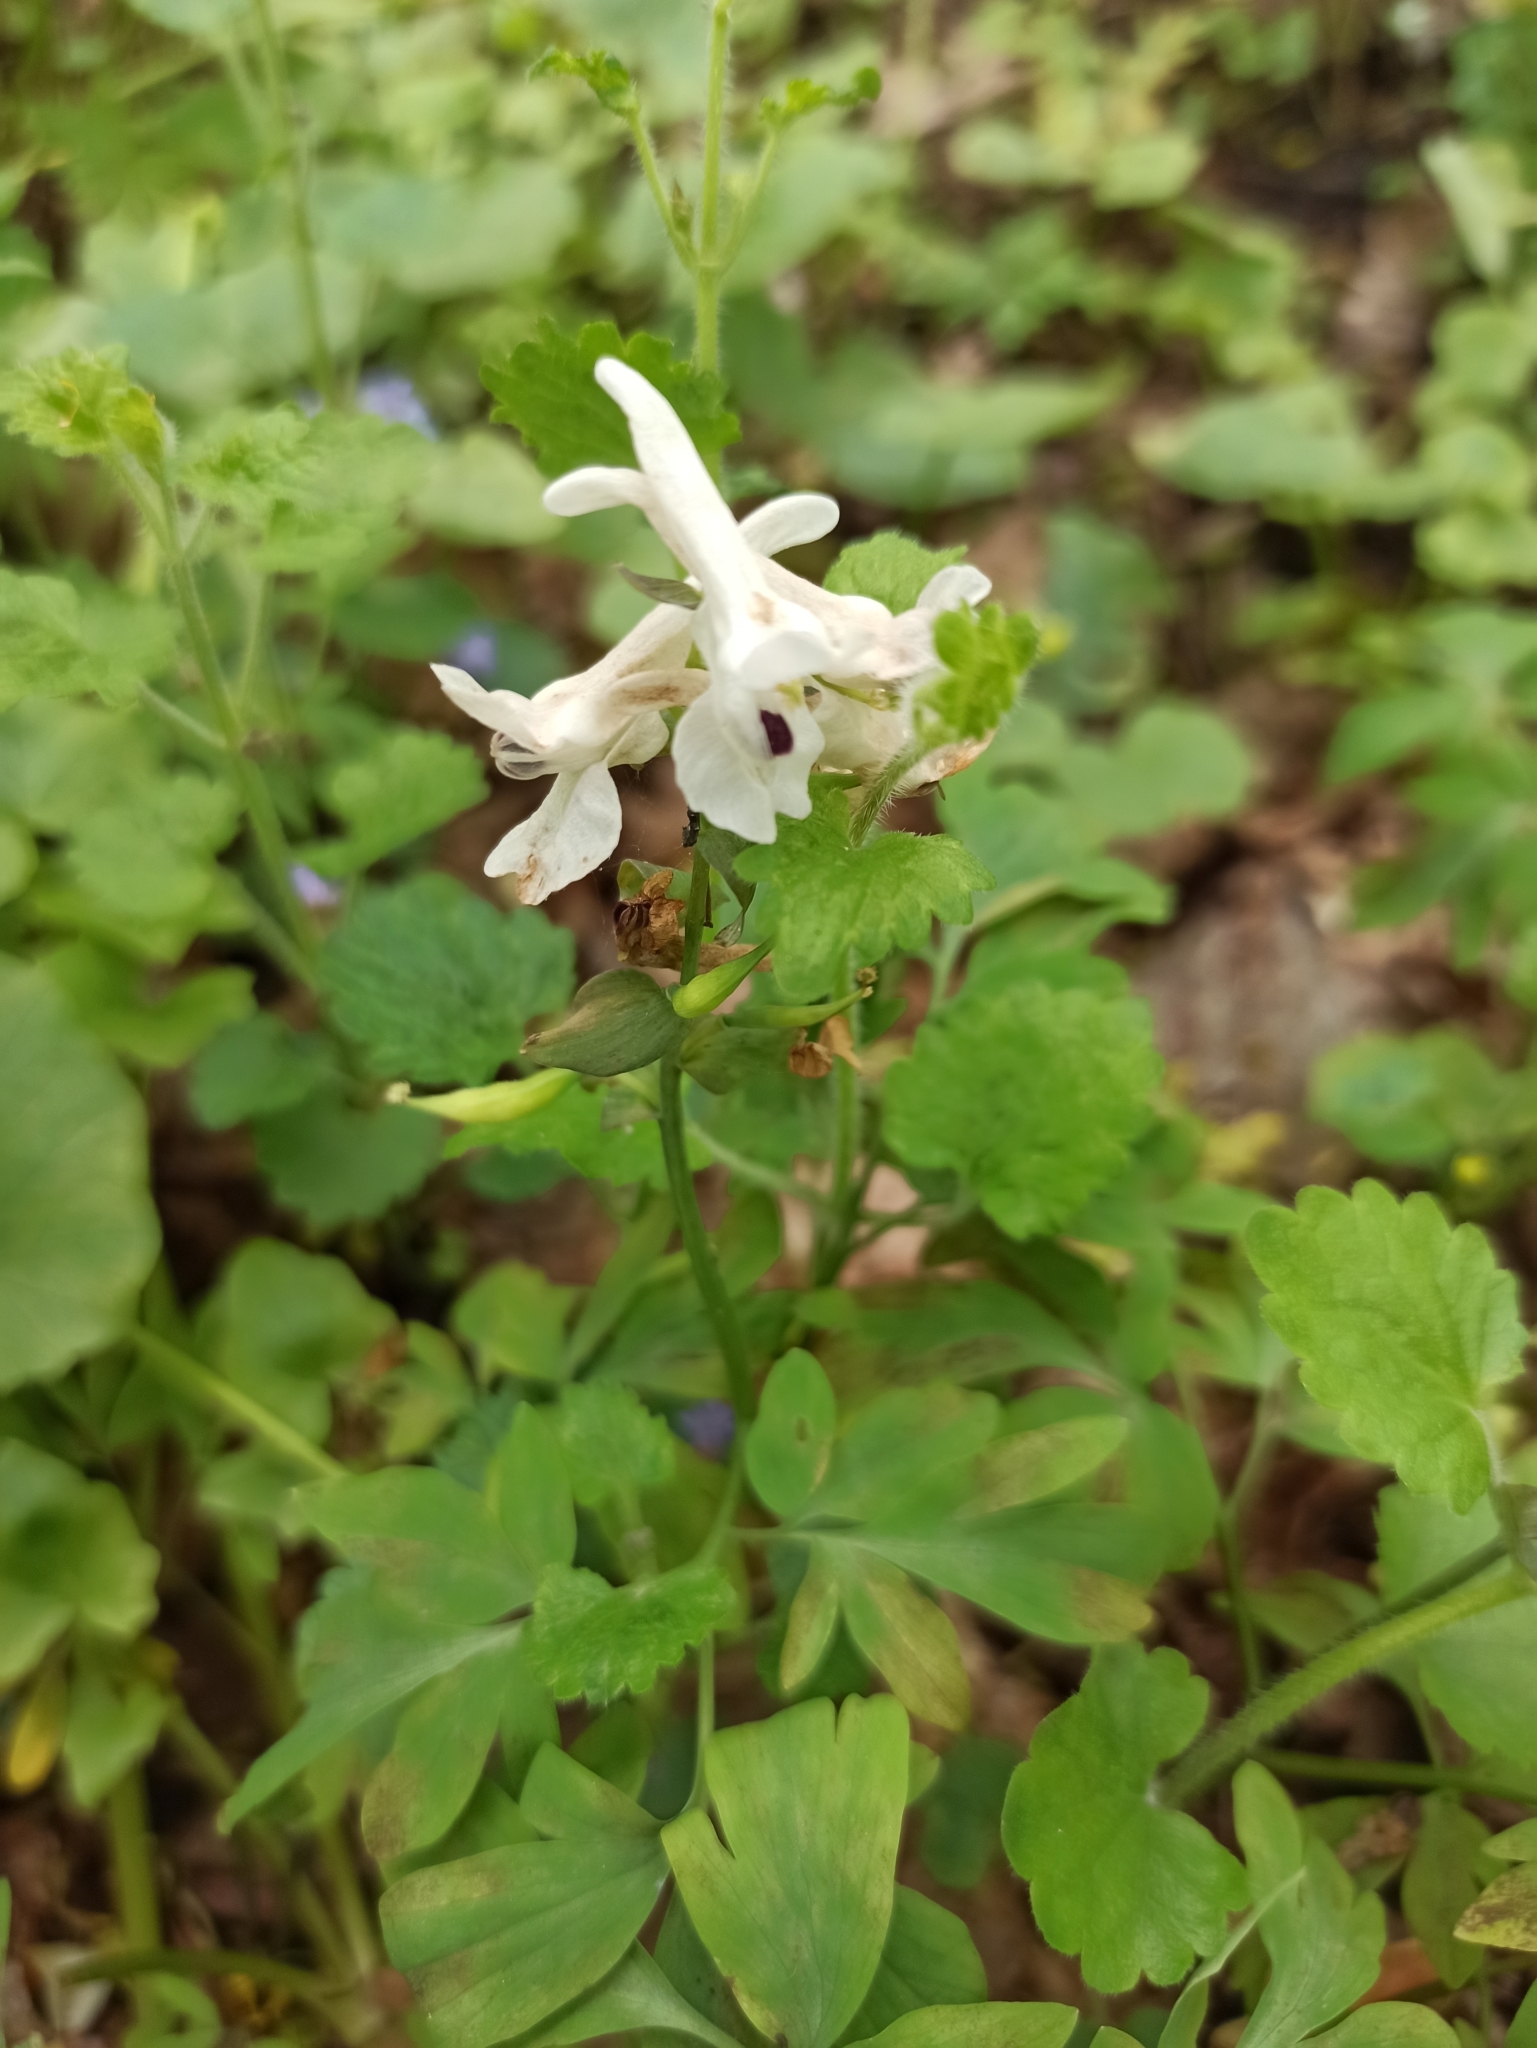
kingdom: Plantae
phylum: Tracheophyta
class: Magnoliopsida
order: Ranunculales
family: Papaveraceae
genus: Corydalis
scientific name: Corydalis cava
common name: Hollowroot
